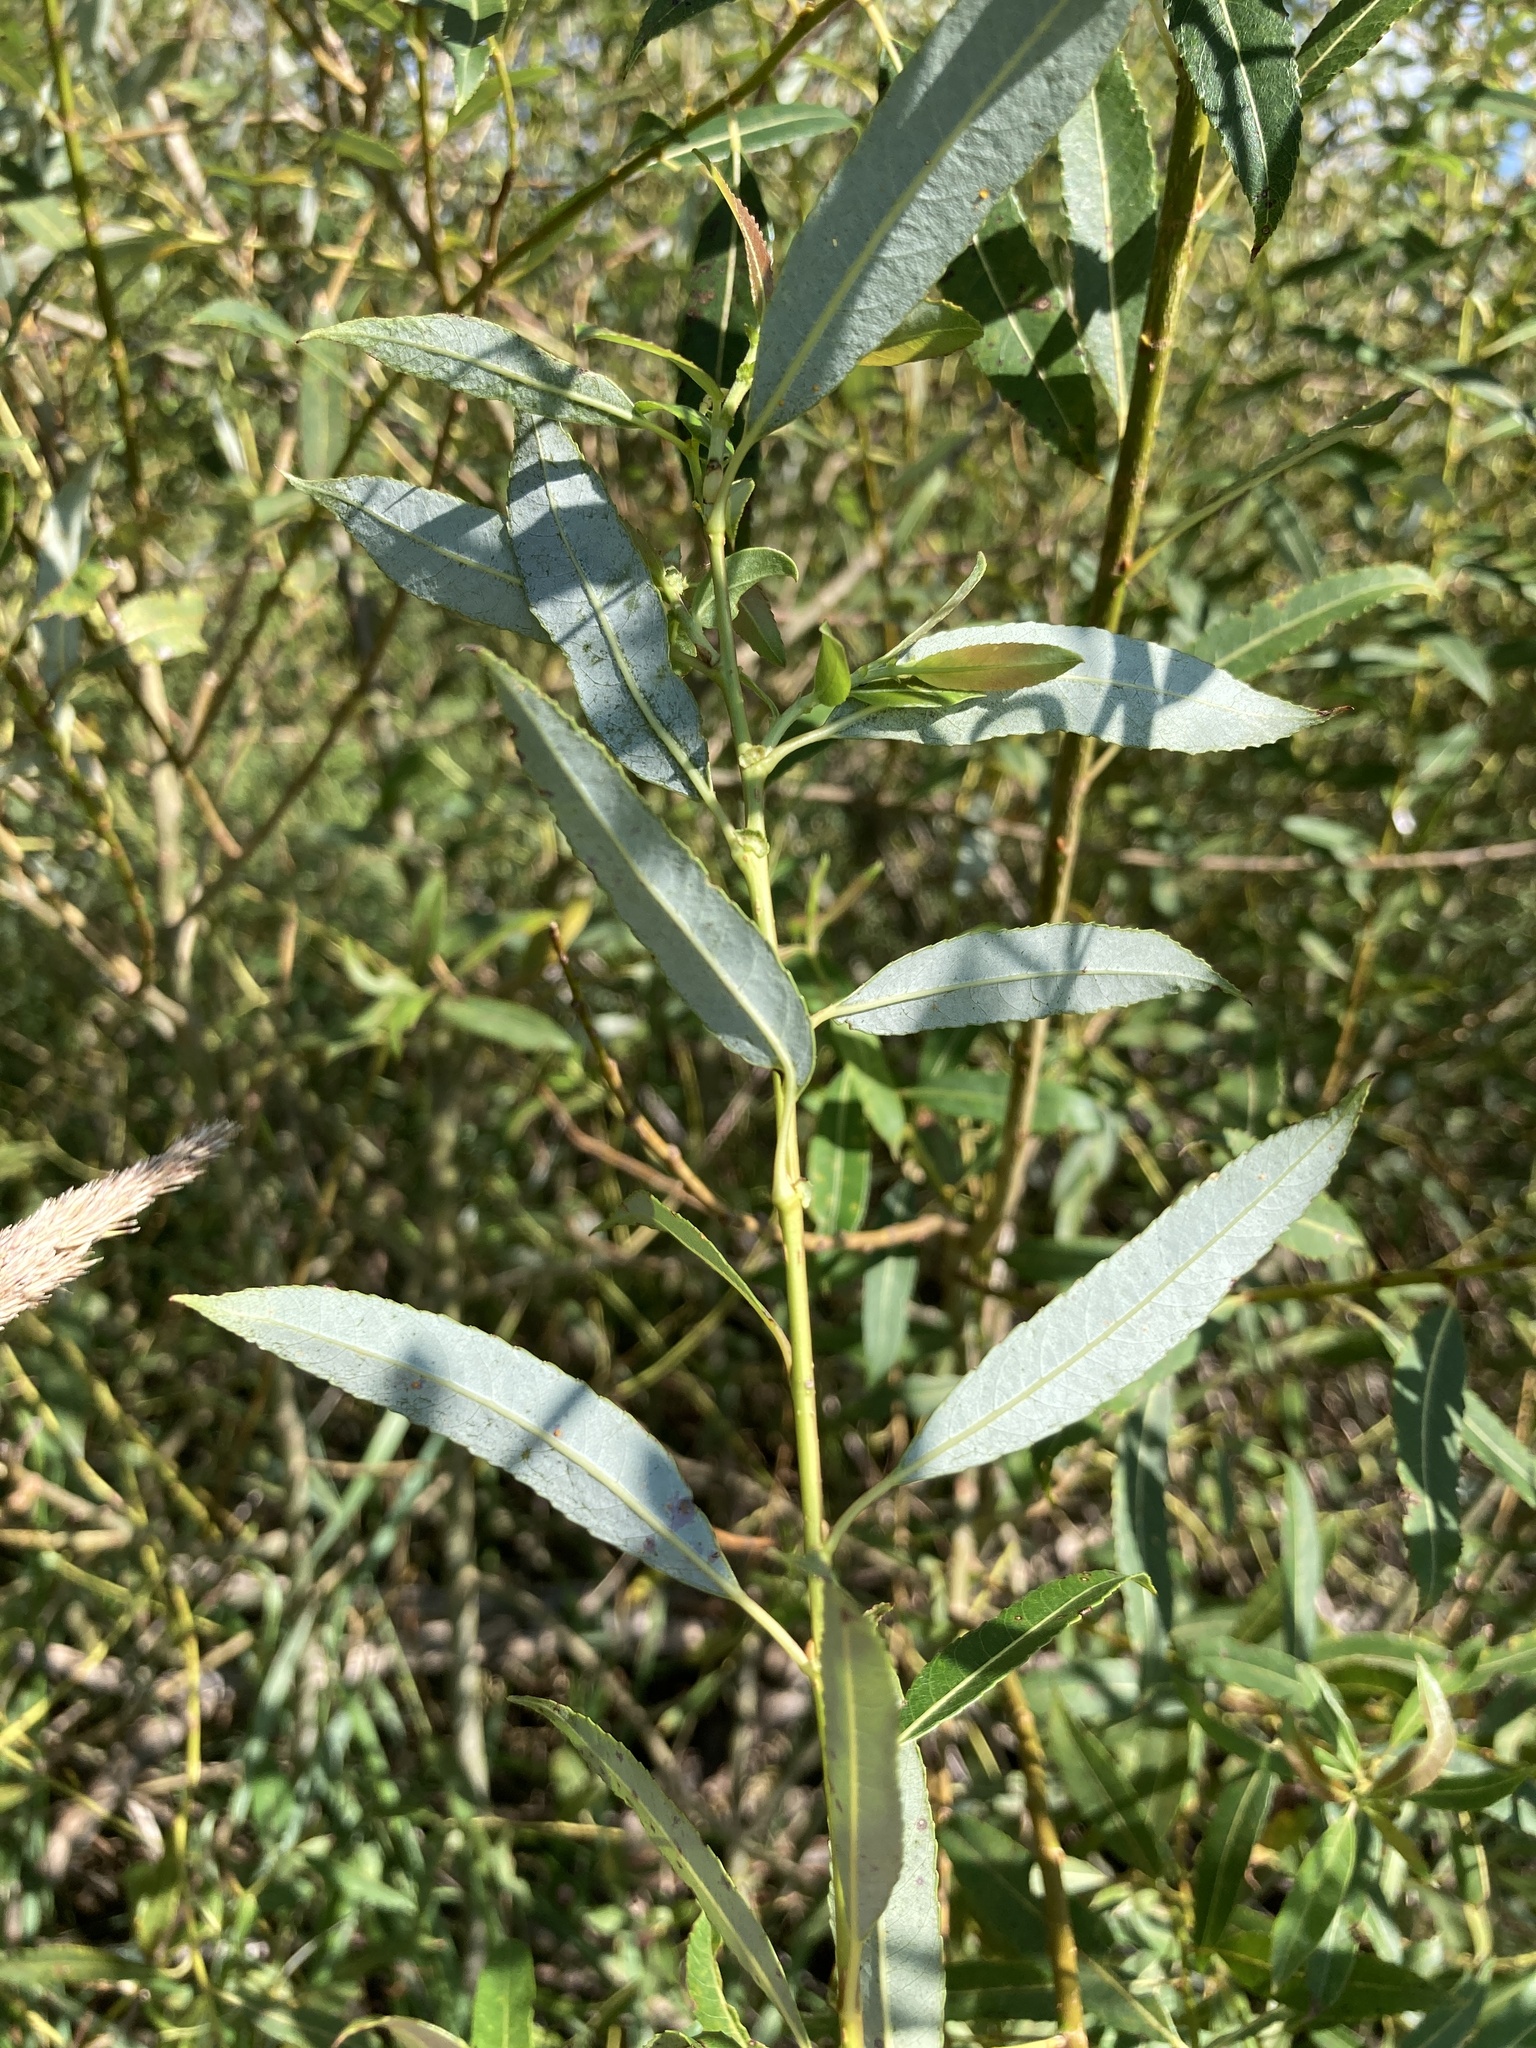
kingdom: Plantae
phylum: Tracheophyta
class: Magnoliopsida
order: Malpighiales
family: Salicaceae
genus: Salix
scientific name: Salix triandra
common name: Almond willow
